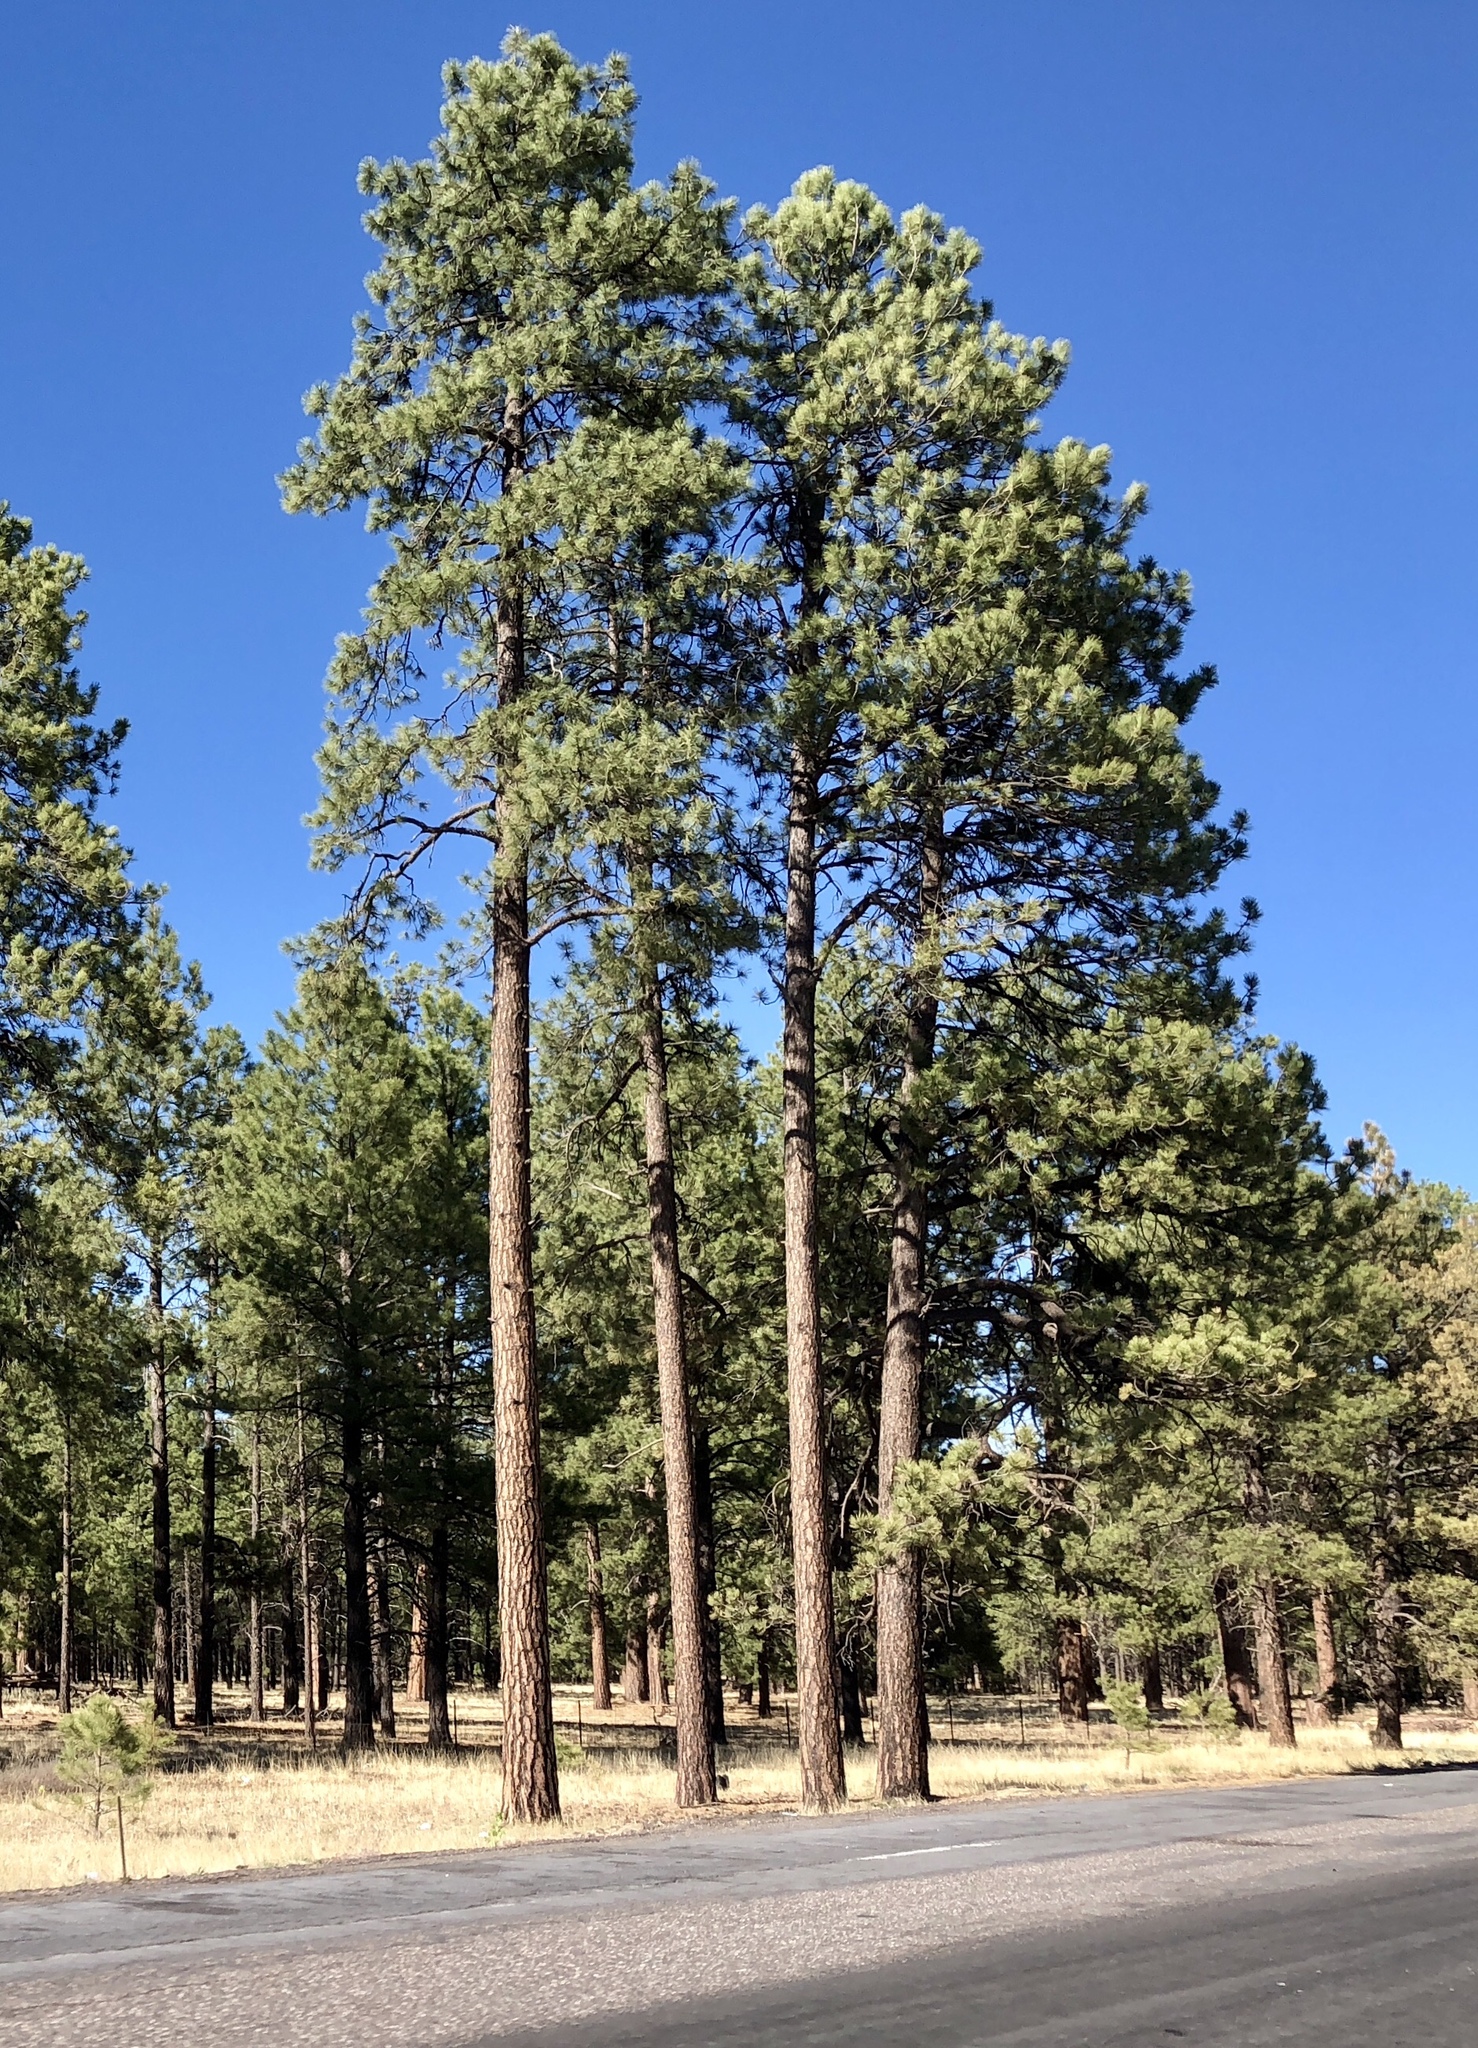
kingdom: Plantae
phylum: Tracheophyta
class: Pinopsida
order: Pinales
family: Pinaceae
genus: Pinus
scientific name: Pinus ponderosa
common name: Western yellow-pine
